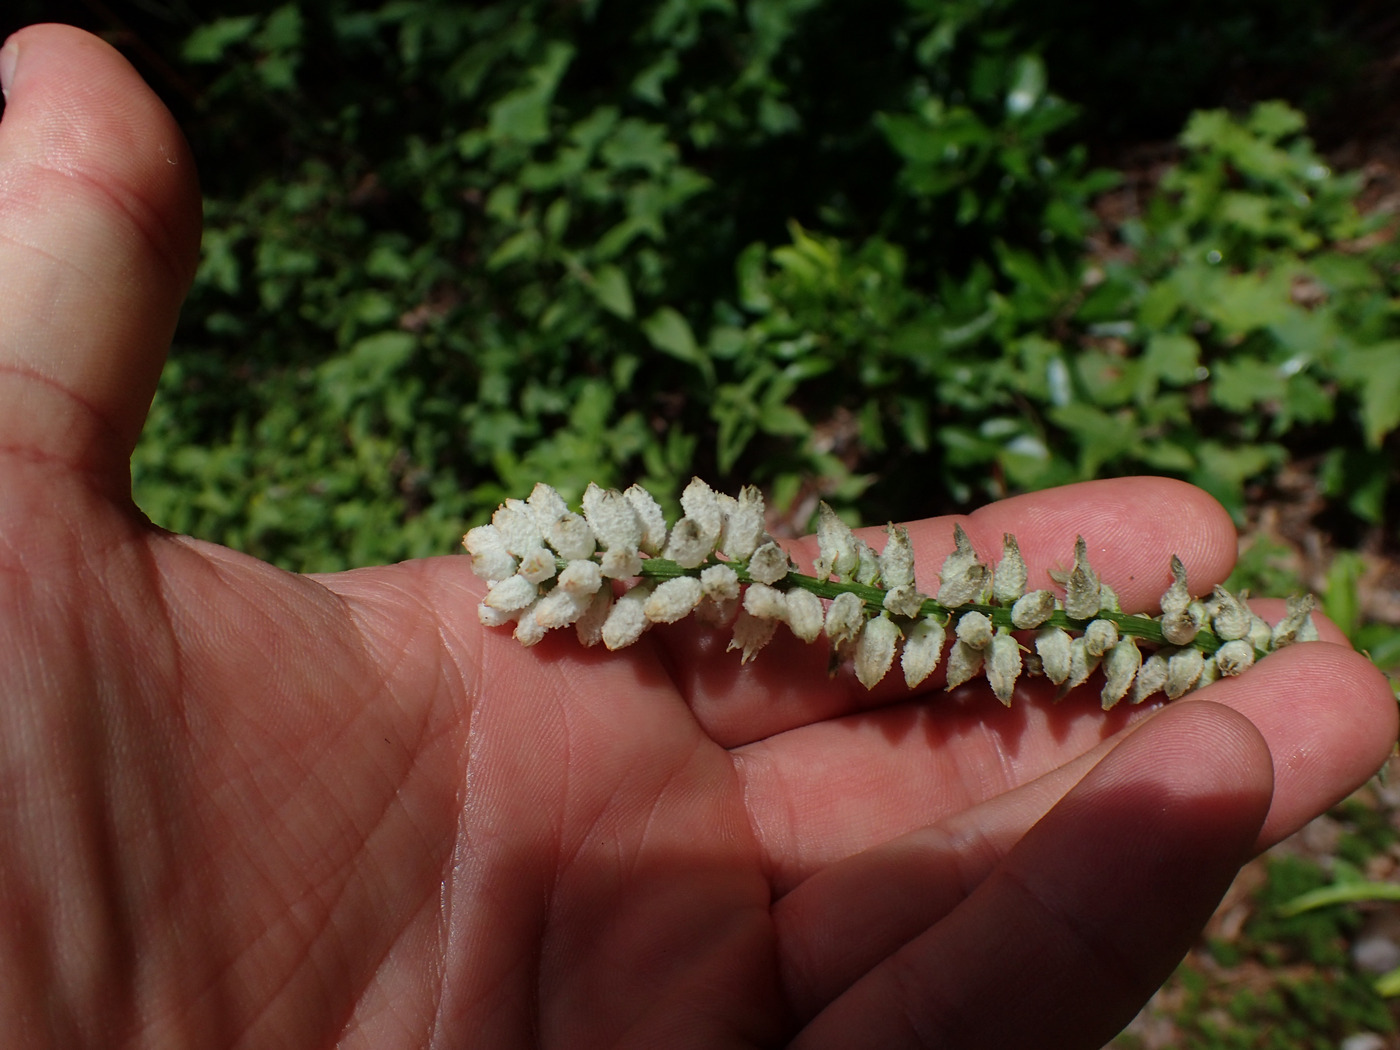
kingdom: Plantae
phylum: Tracheophyta
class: Liliopsida
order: Dioscoreales
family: Nartheciaceae
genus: Aletris
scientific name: Aletris farinosa
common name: Colicroot
